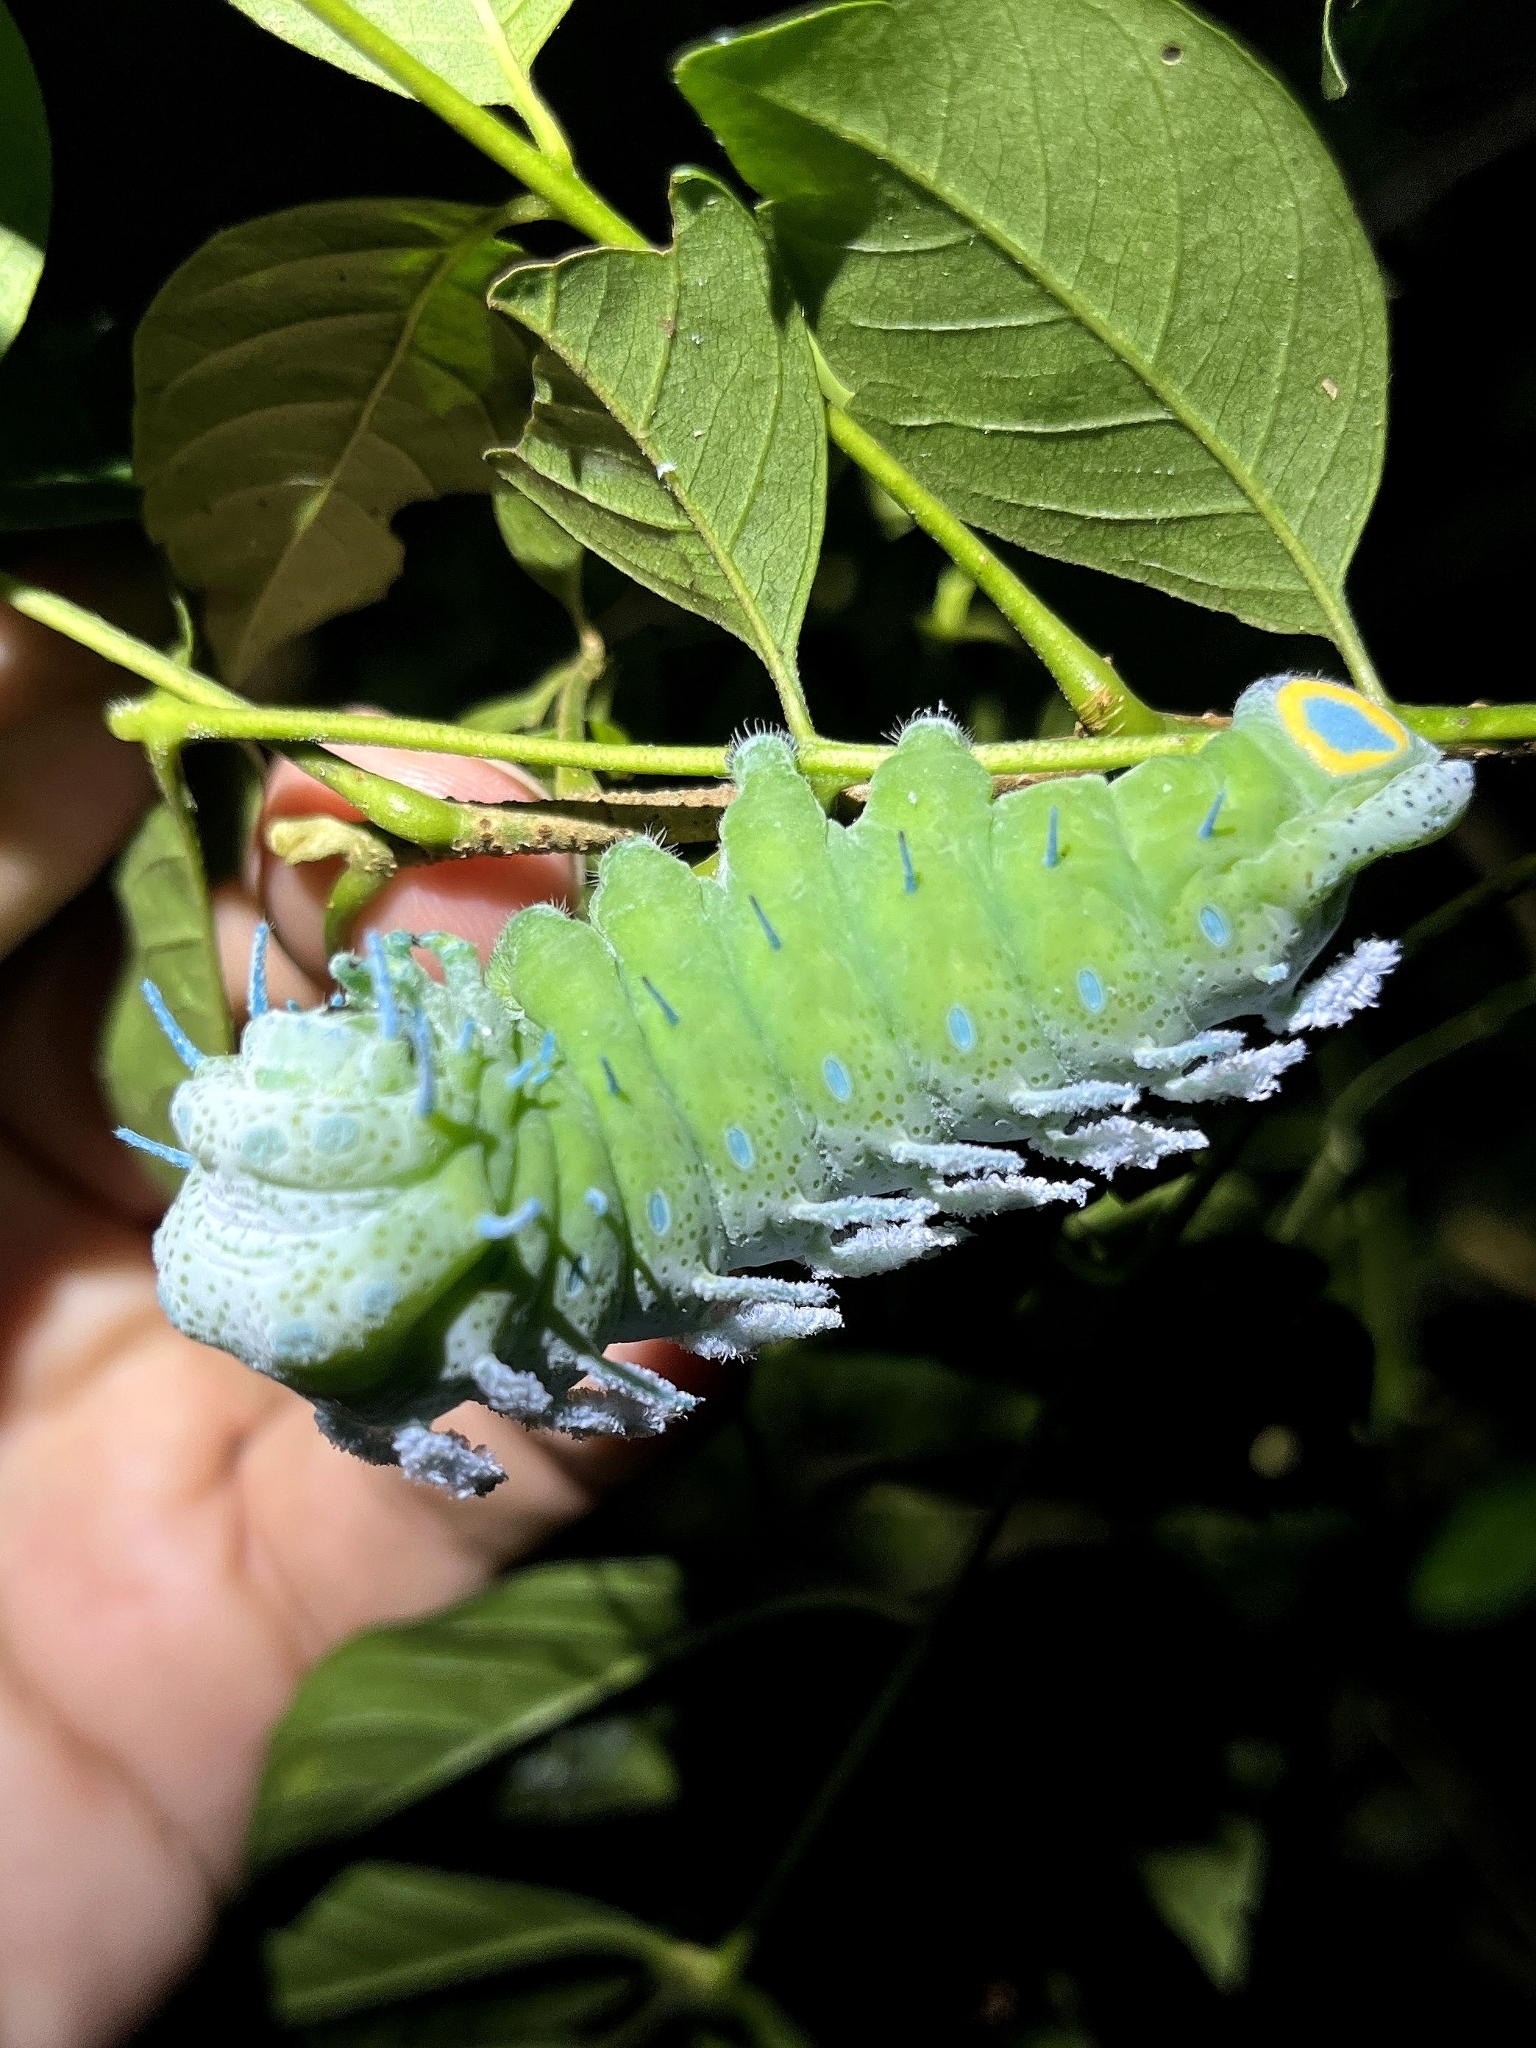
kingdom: Animalia
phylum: Arthropoda
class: Insecta
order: Lepidoptera
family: Saturniidae
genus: Attacus
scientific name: Attacus taprobanis
